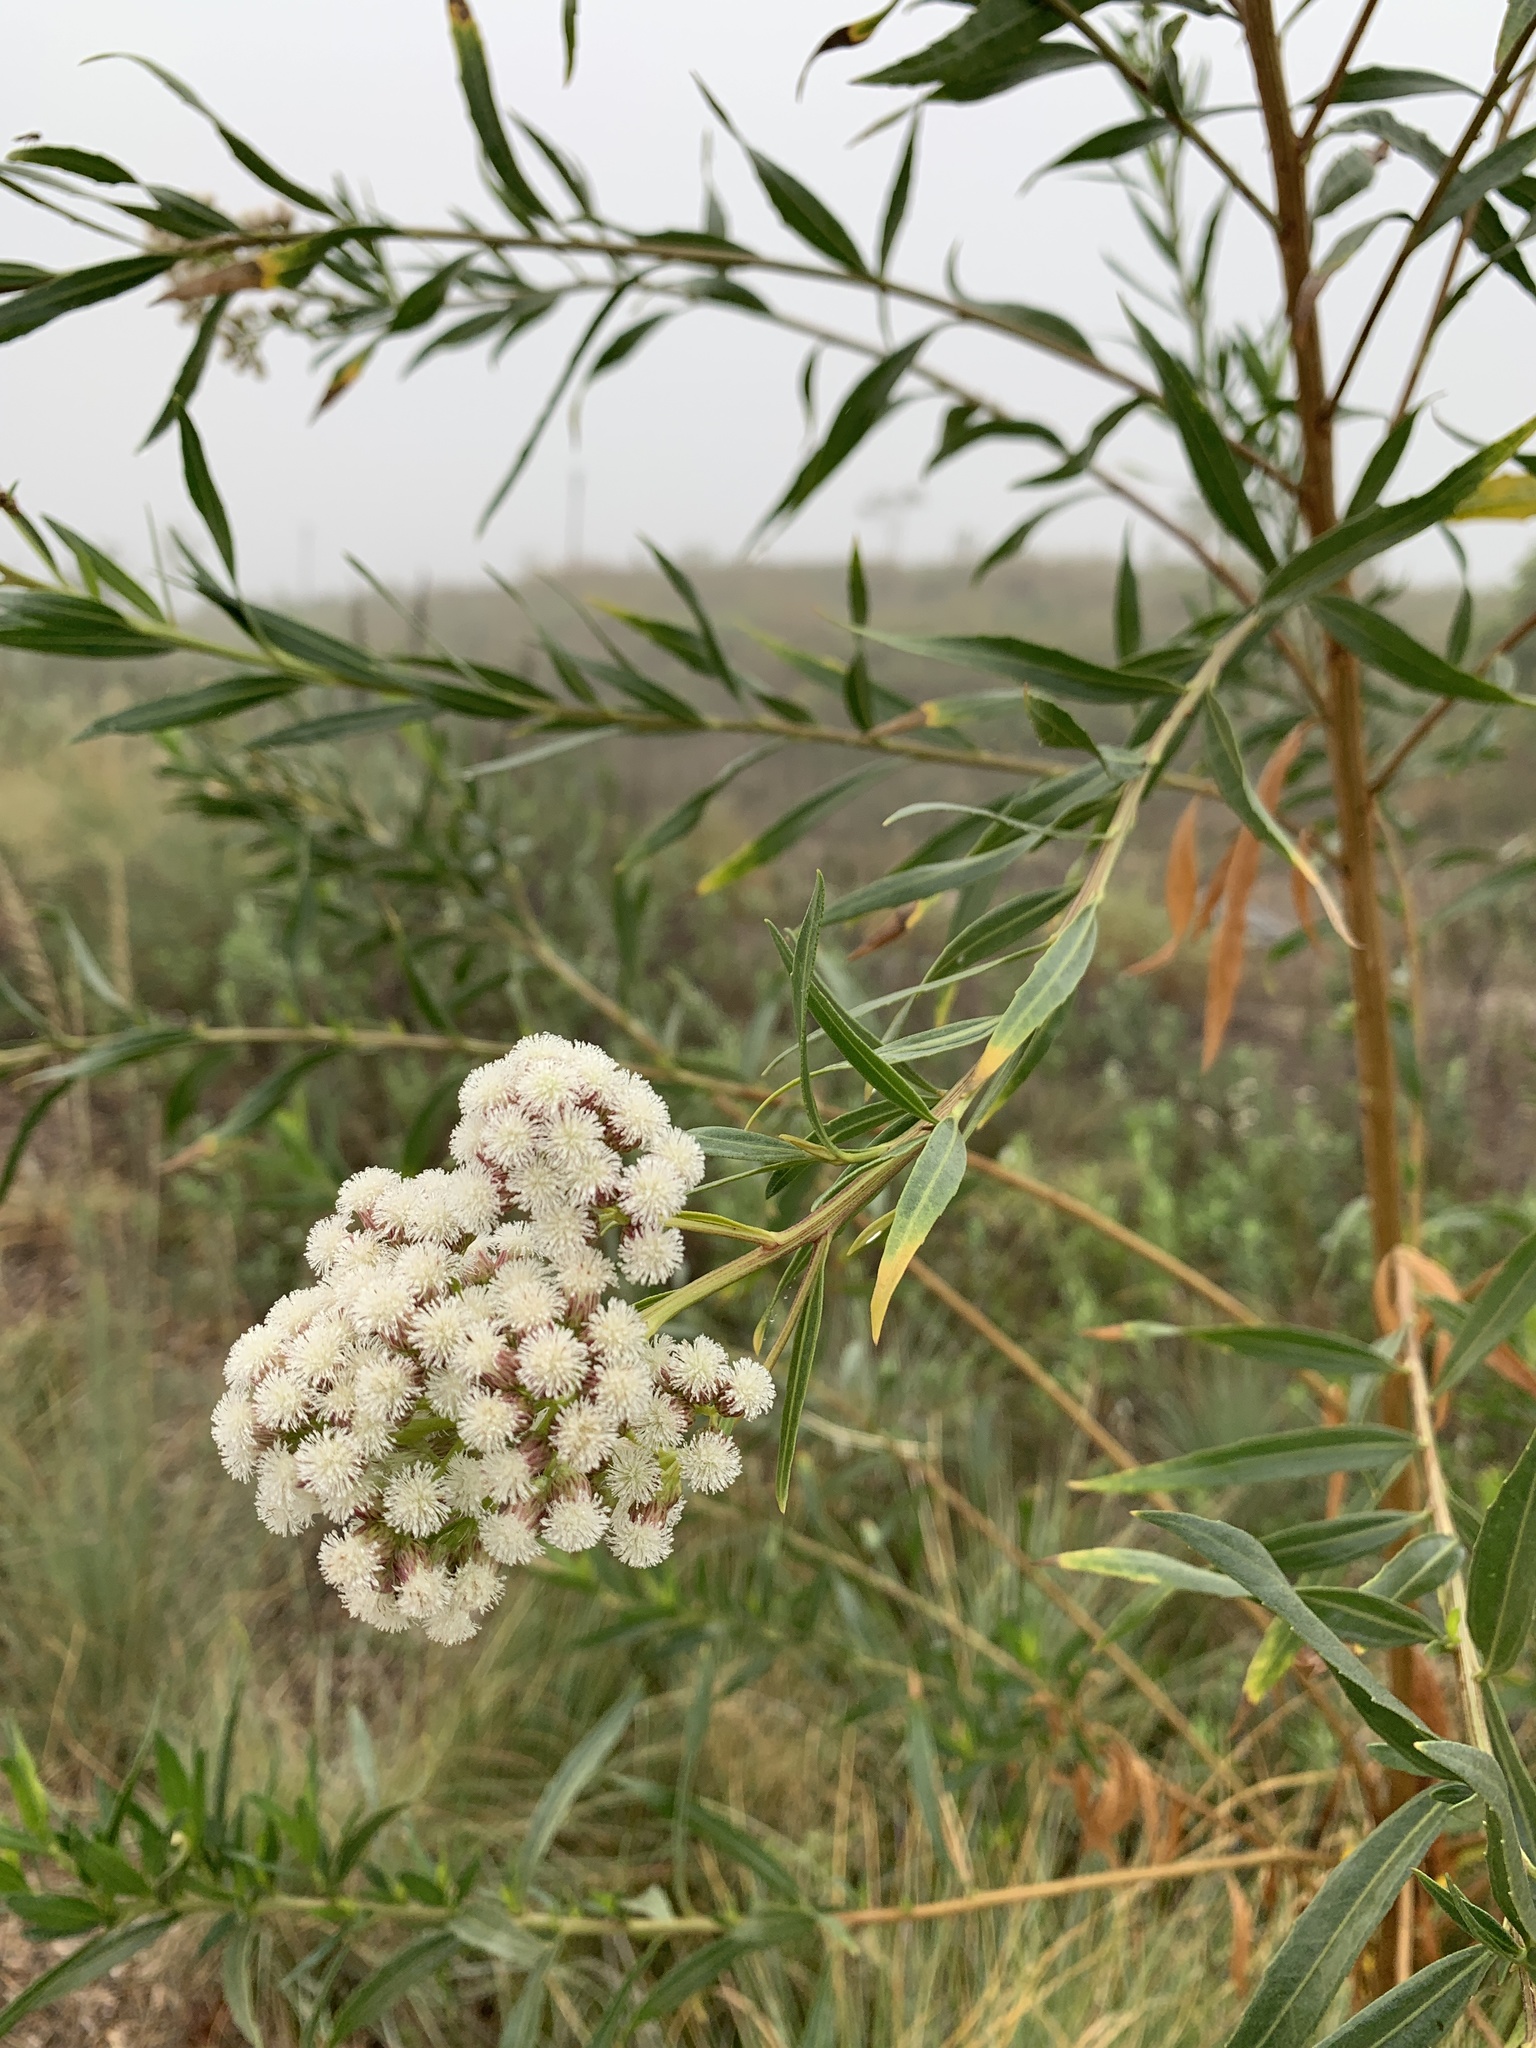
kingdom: Plantae
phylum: Tracheophyta
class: Magnoliopsida
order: Asterales
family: Asteraceae
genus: Baccharis
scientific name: Baccharis salicifolia
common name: Sticky baccharis
